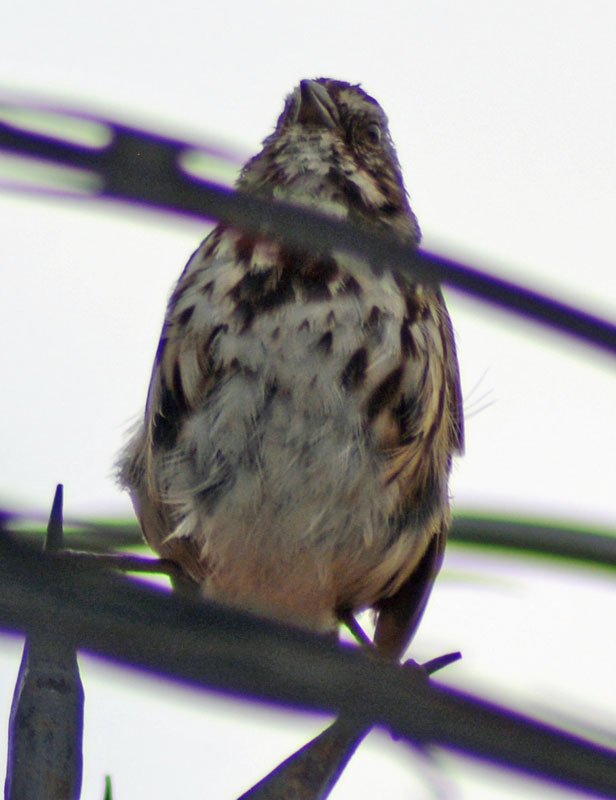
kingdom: Animalia
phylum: Chordata
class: Aves
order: Passeriformes
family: Passerellidae
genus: Melospiza
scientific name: Melospiza melodia
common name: Song sparrow
